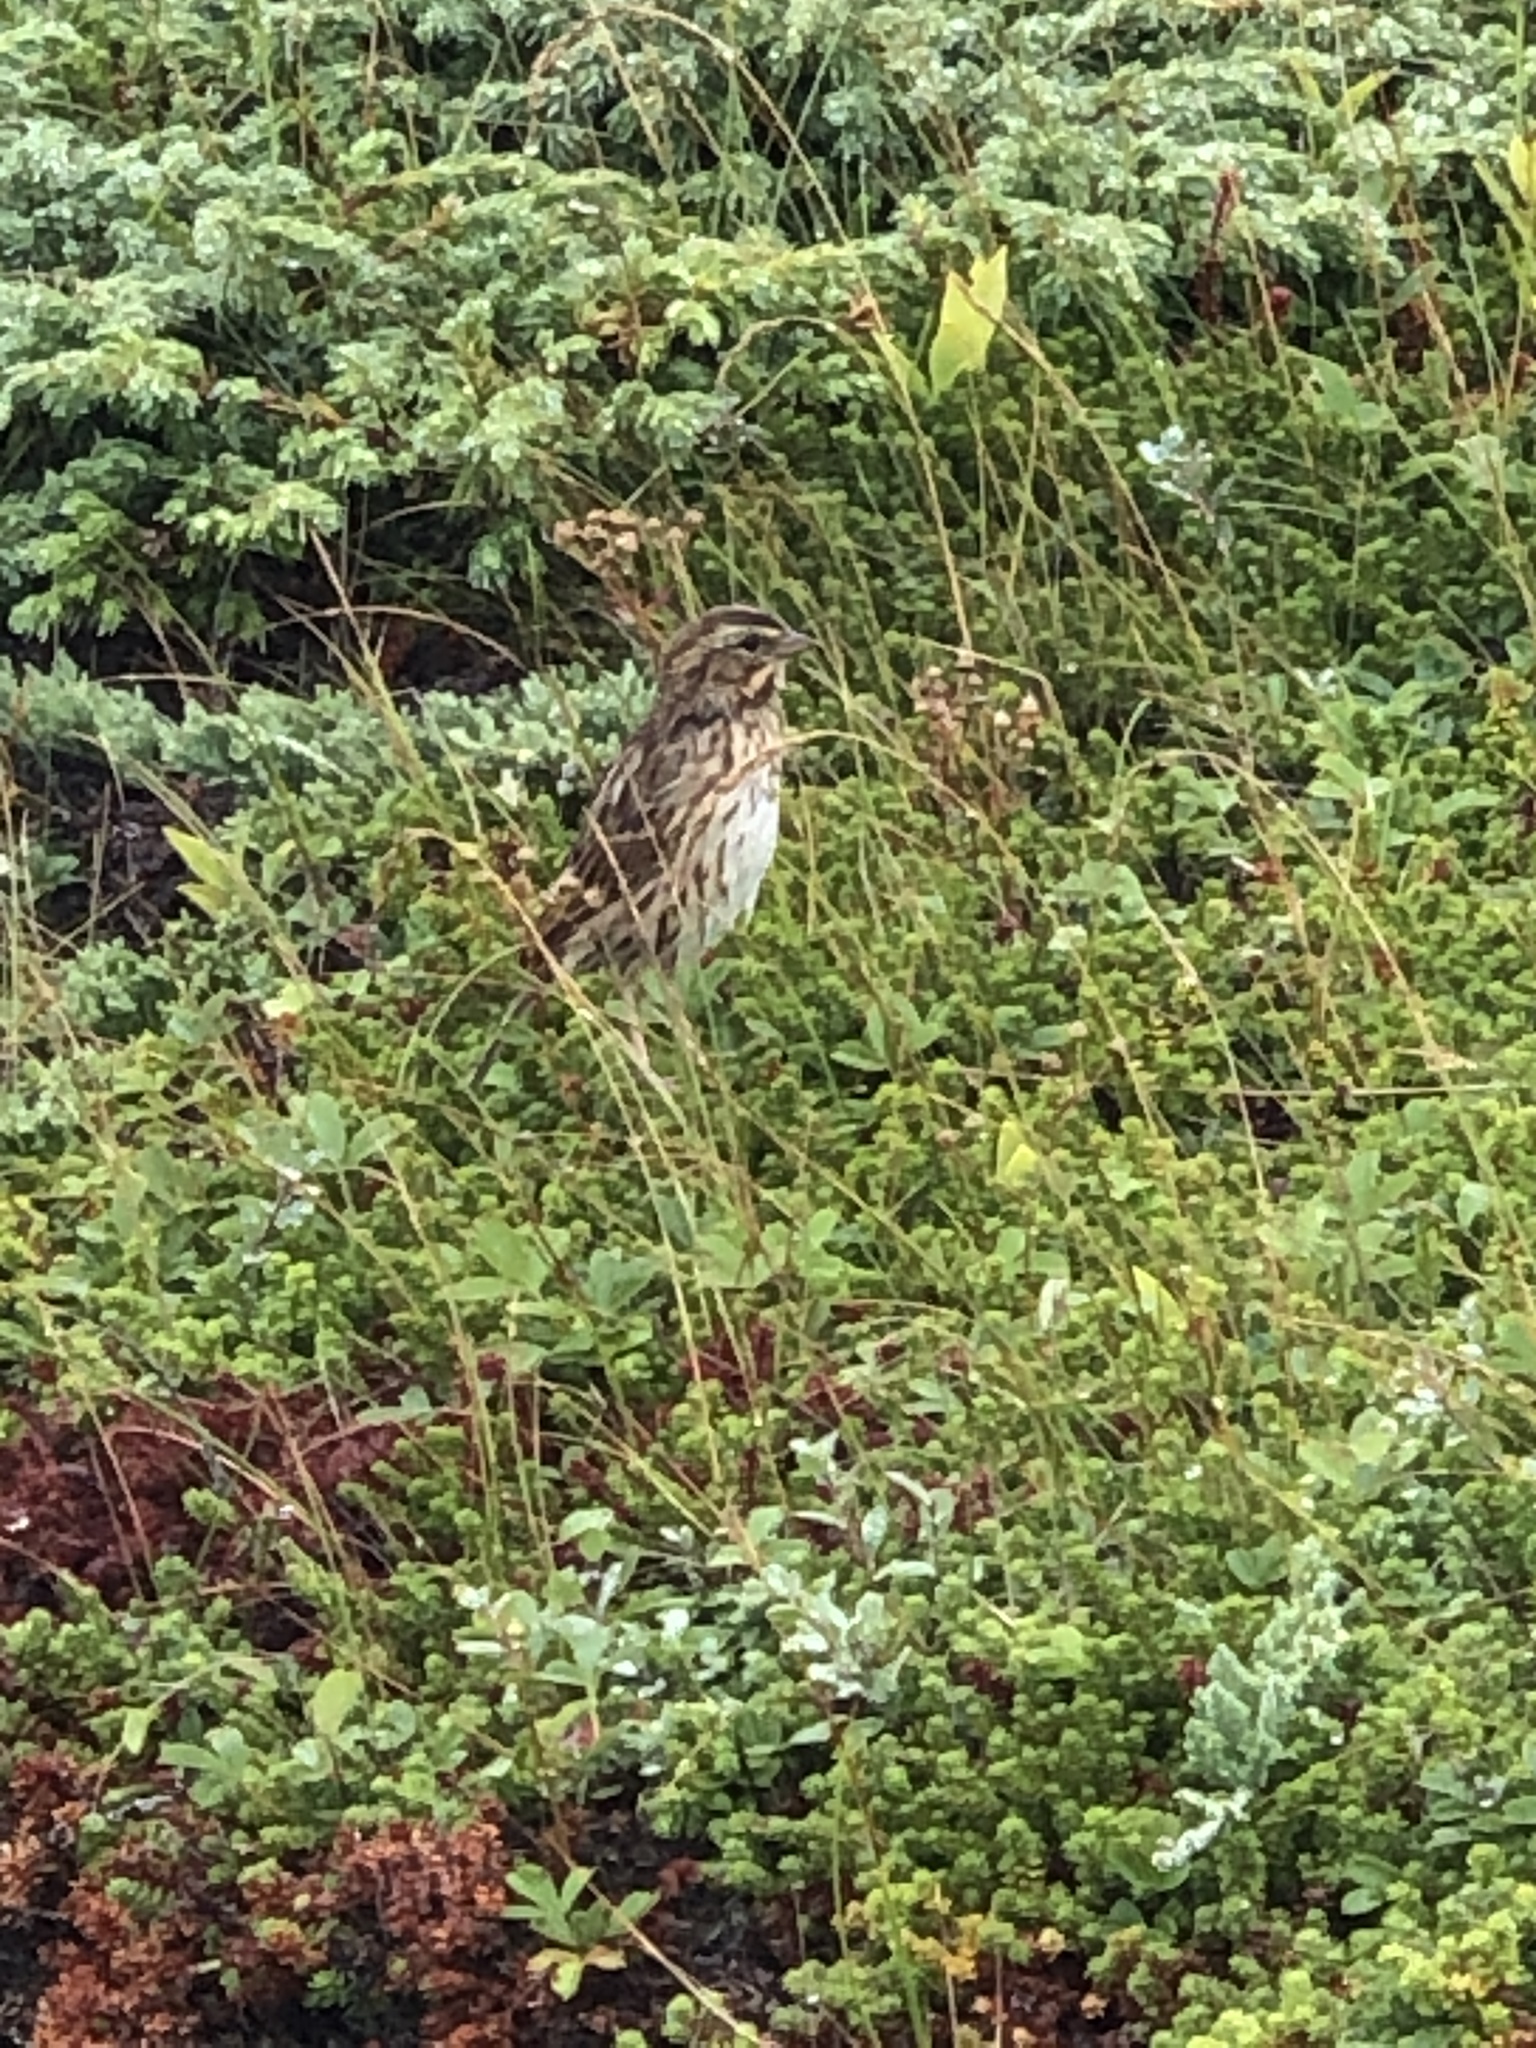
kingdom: Animalia
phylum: Chordata
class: Aves
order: Passeriformes
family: Passerellidae
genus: Passerculus
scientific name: Passerculus sandwichensis
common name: Savannah sparrow
